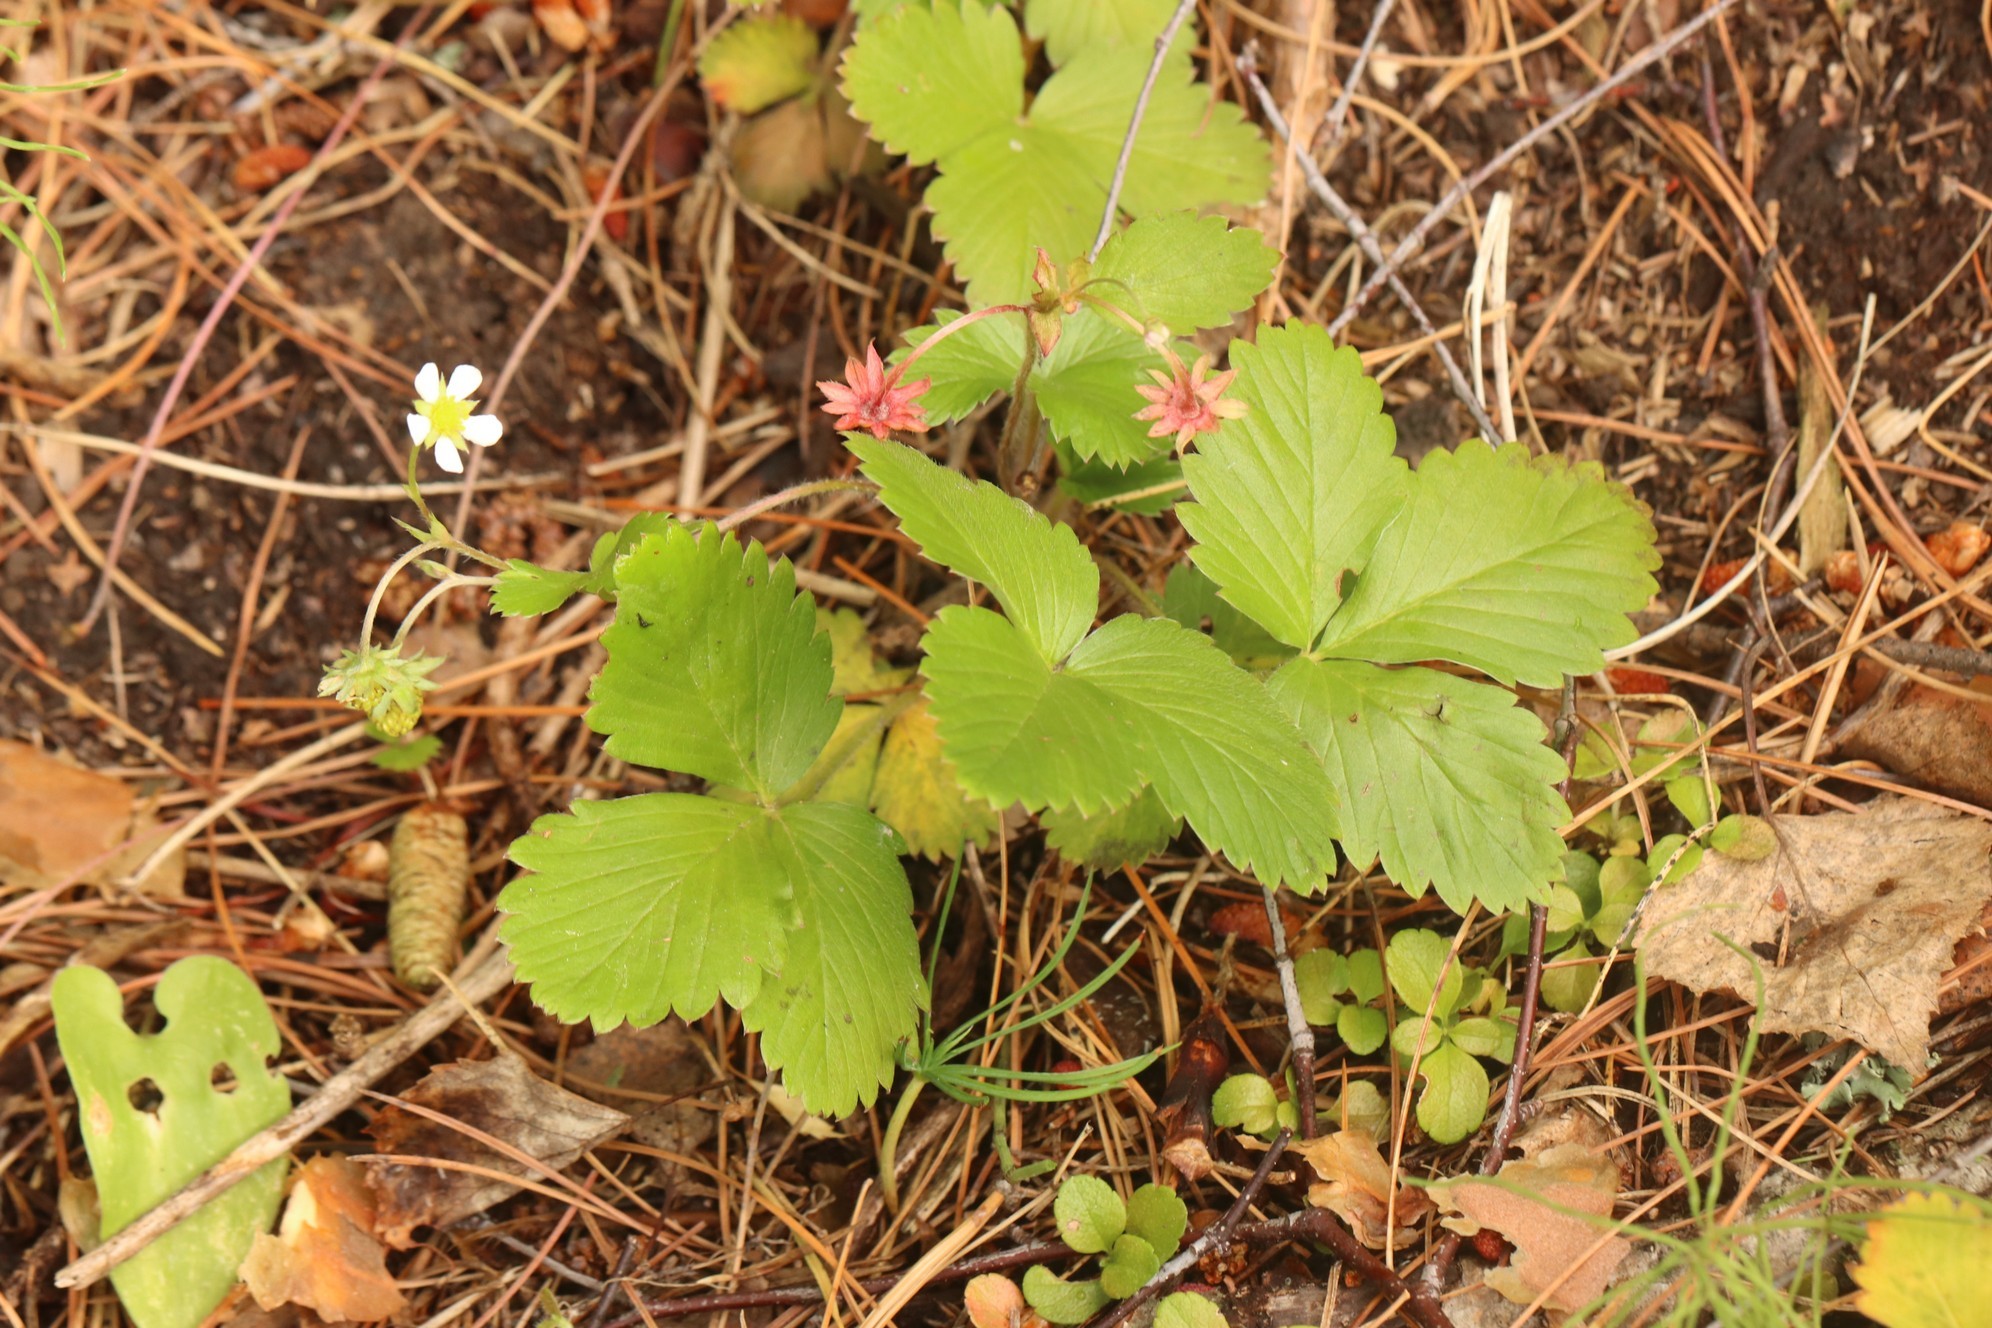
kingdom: Plantae
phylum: Tracheophyta
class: Magnoliopsida
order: Rosales
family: Rosaceae
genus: Fragaria
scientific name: Fragaria vesca
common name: Wild strawberry
